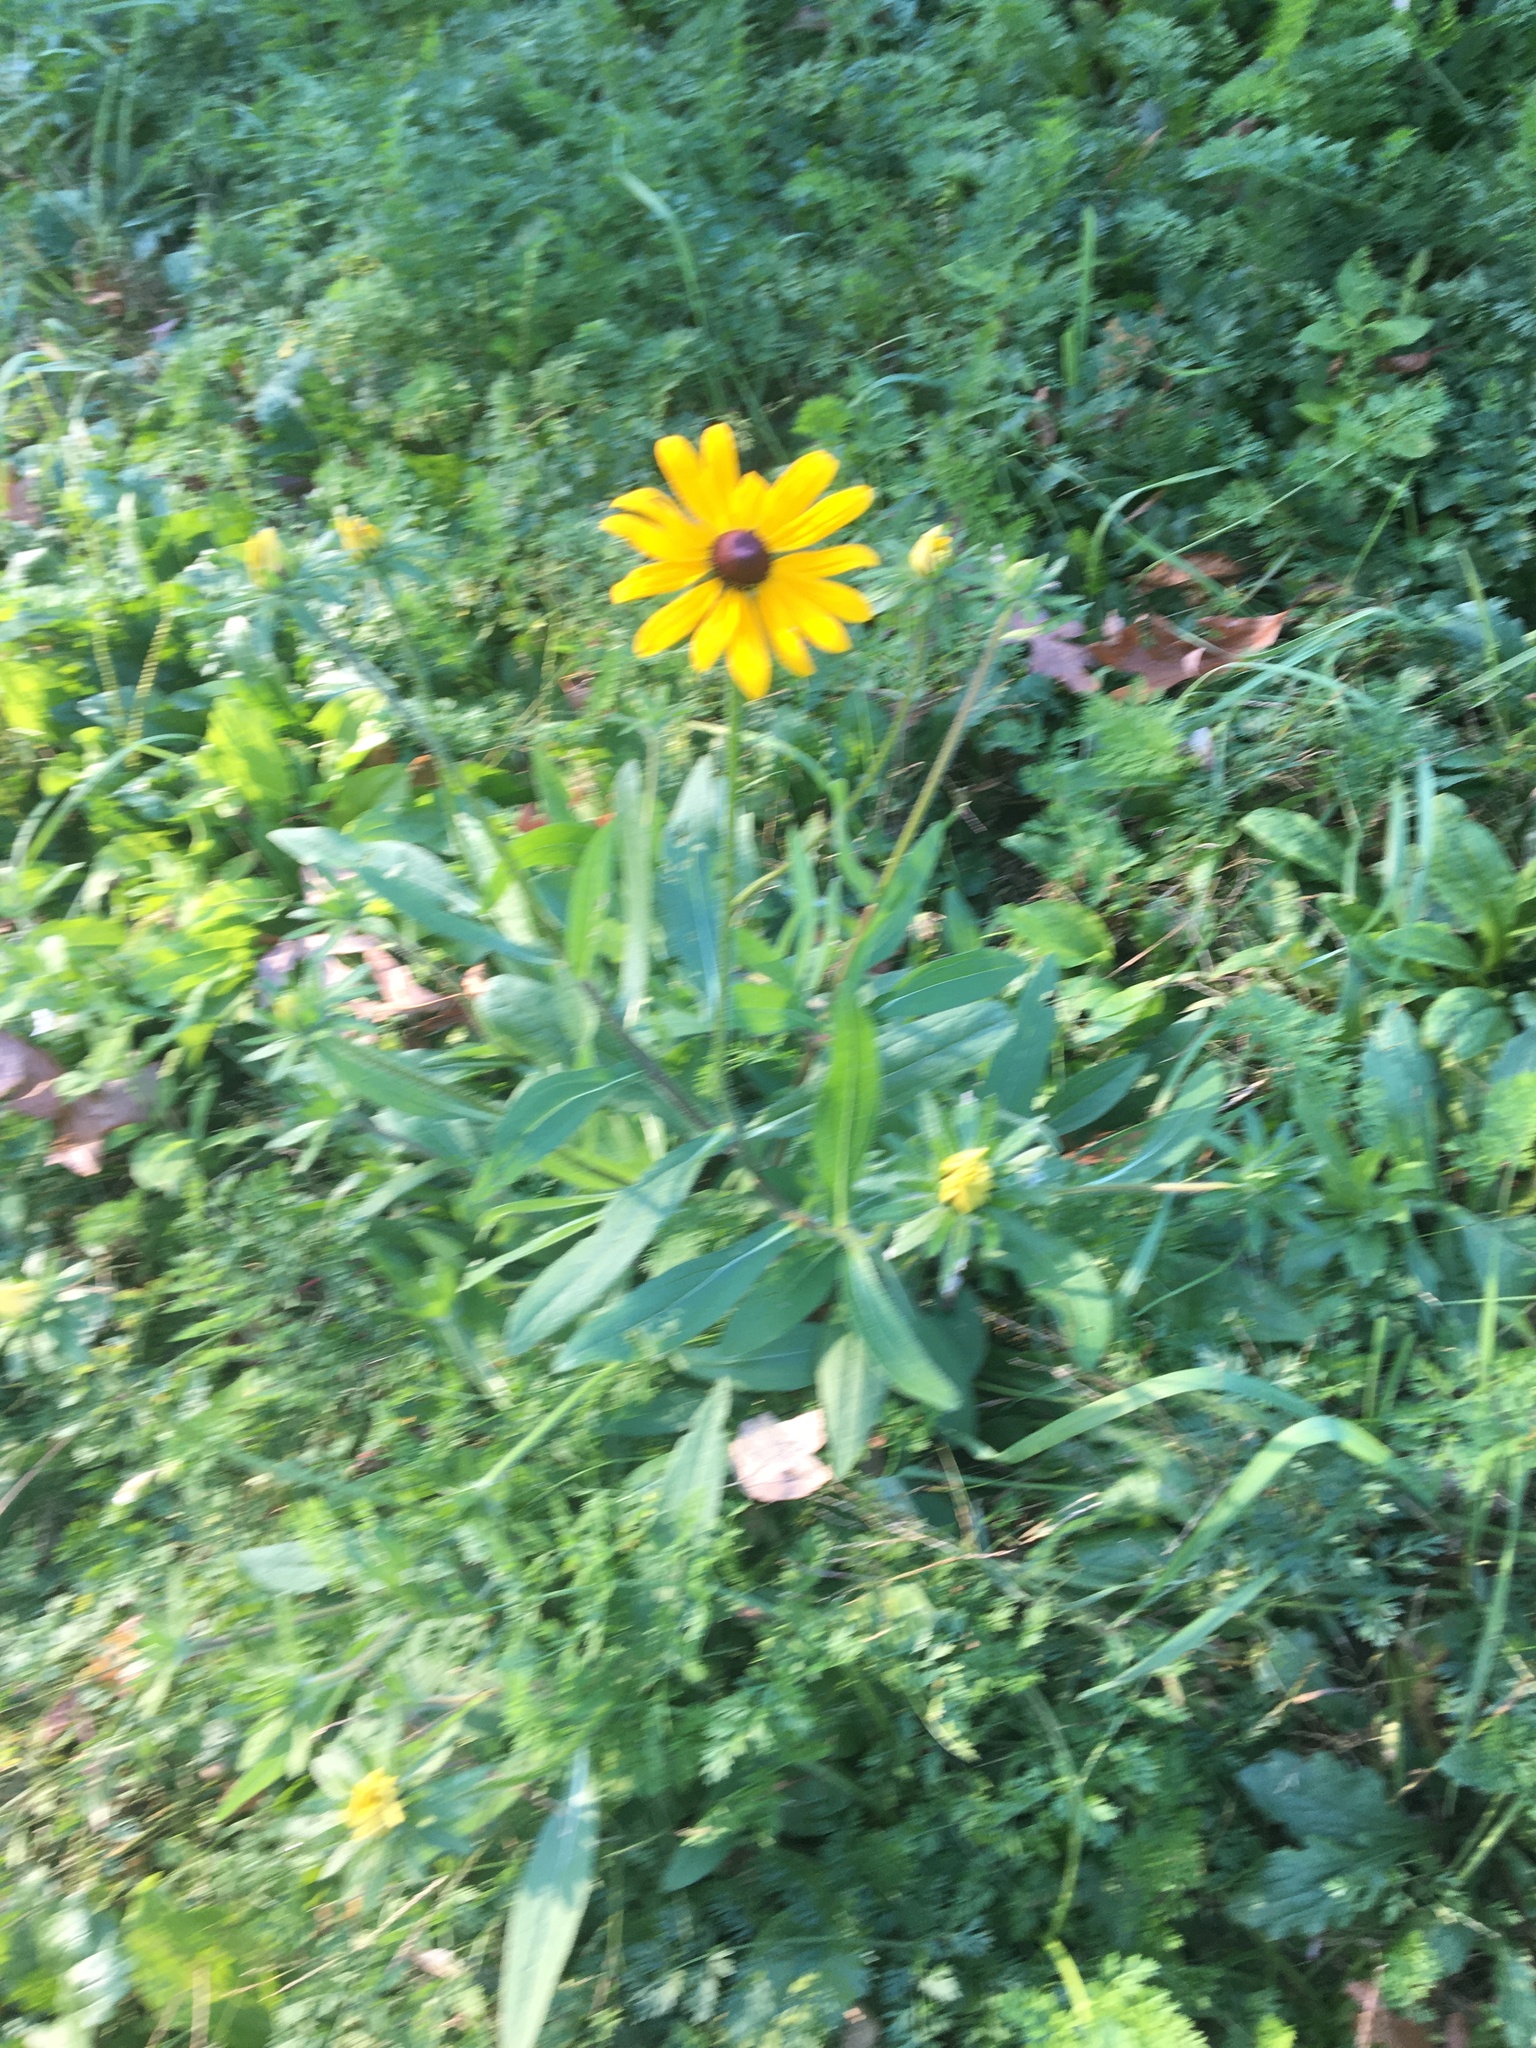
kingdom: Plantae
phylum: Tracheophyta
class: Magnoliopsida
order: Asterales
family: Asteraceae
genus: Rudbeckia
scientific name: Rudbeckia hirta
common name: Black-eyed-susan
